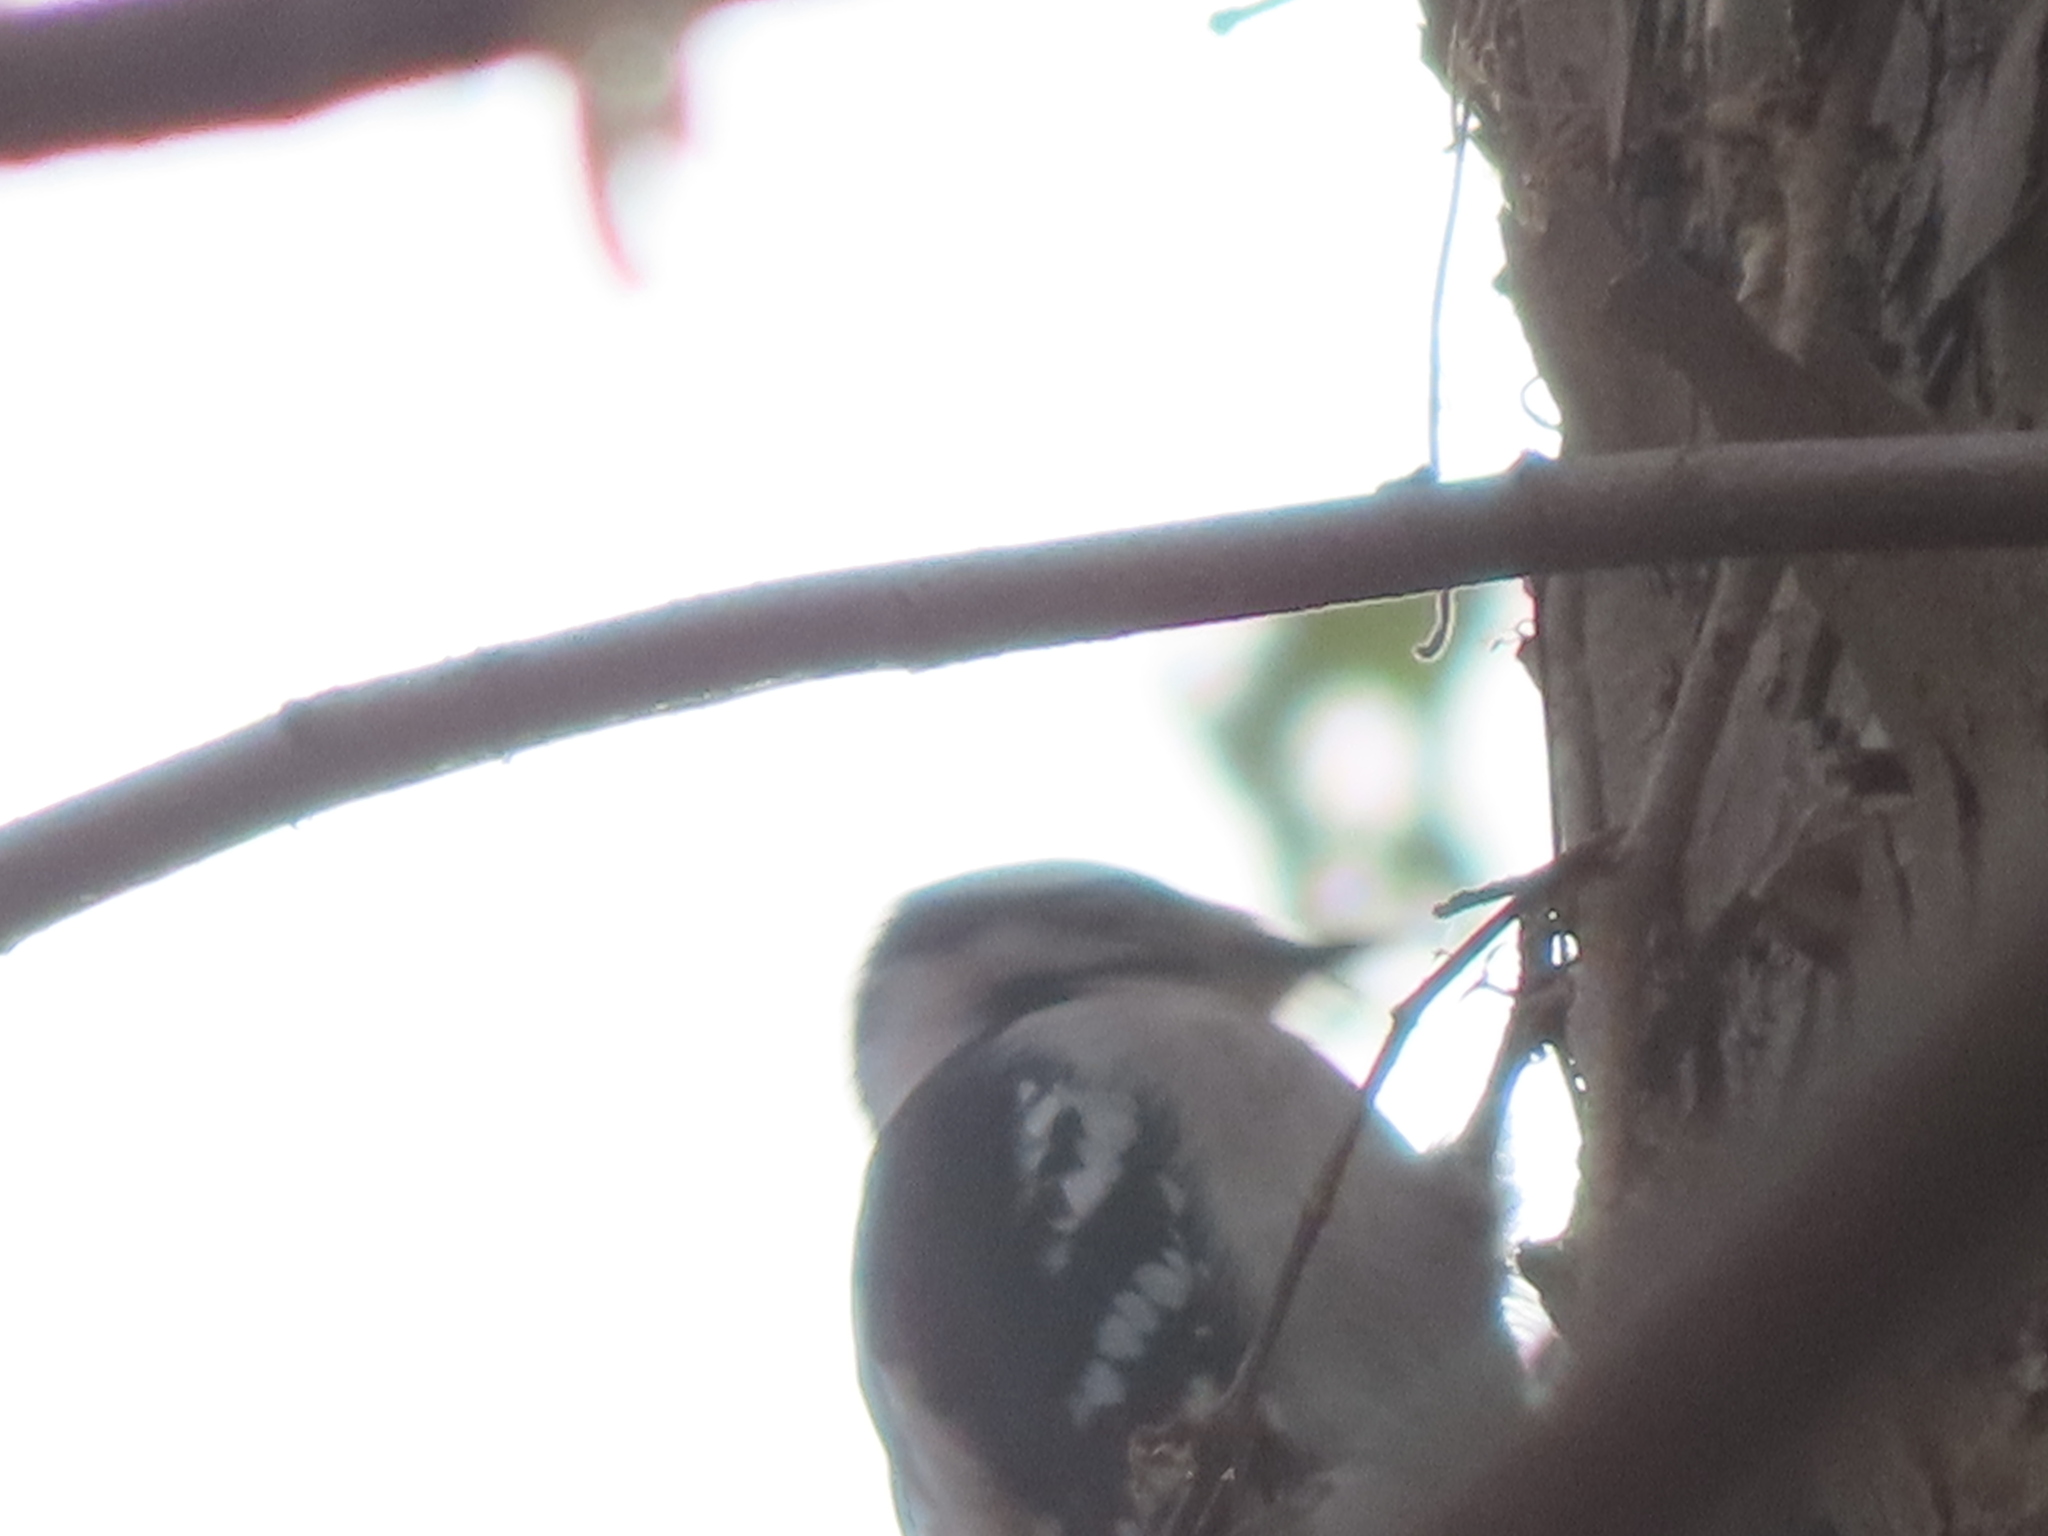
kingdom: Animalia
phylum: Chordata
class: Aves
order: Piciformes
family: Picidae
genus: Dryobates
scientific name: Dryobates pubescens
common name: Downy woodpecker
